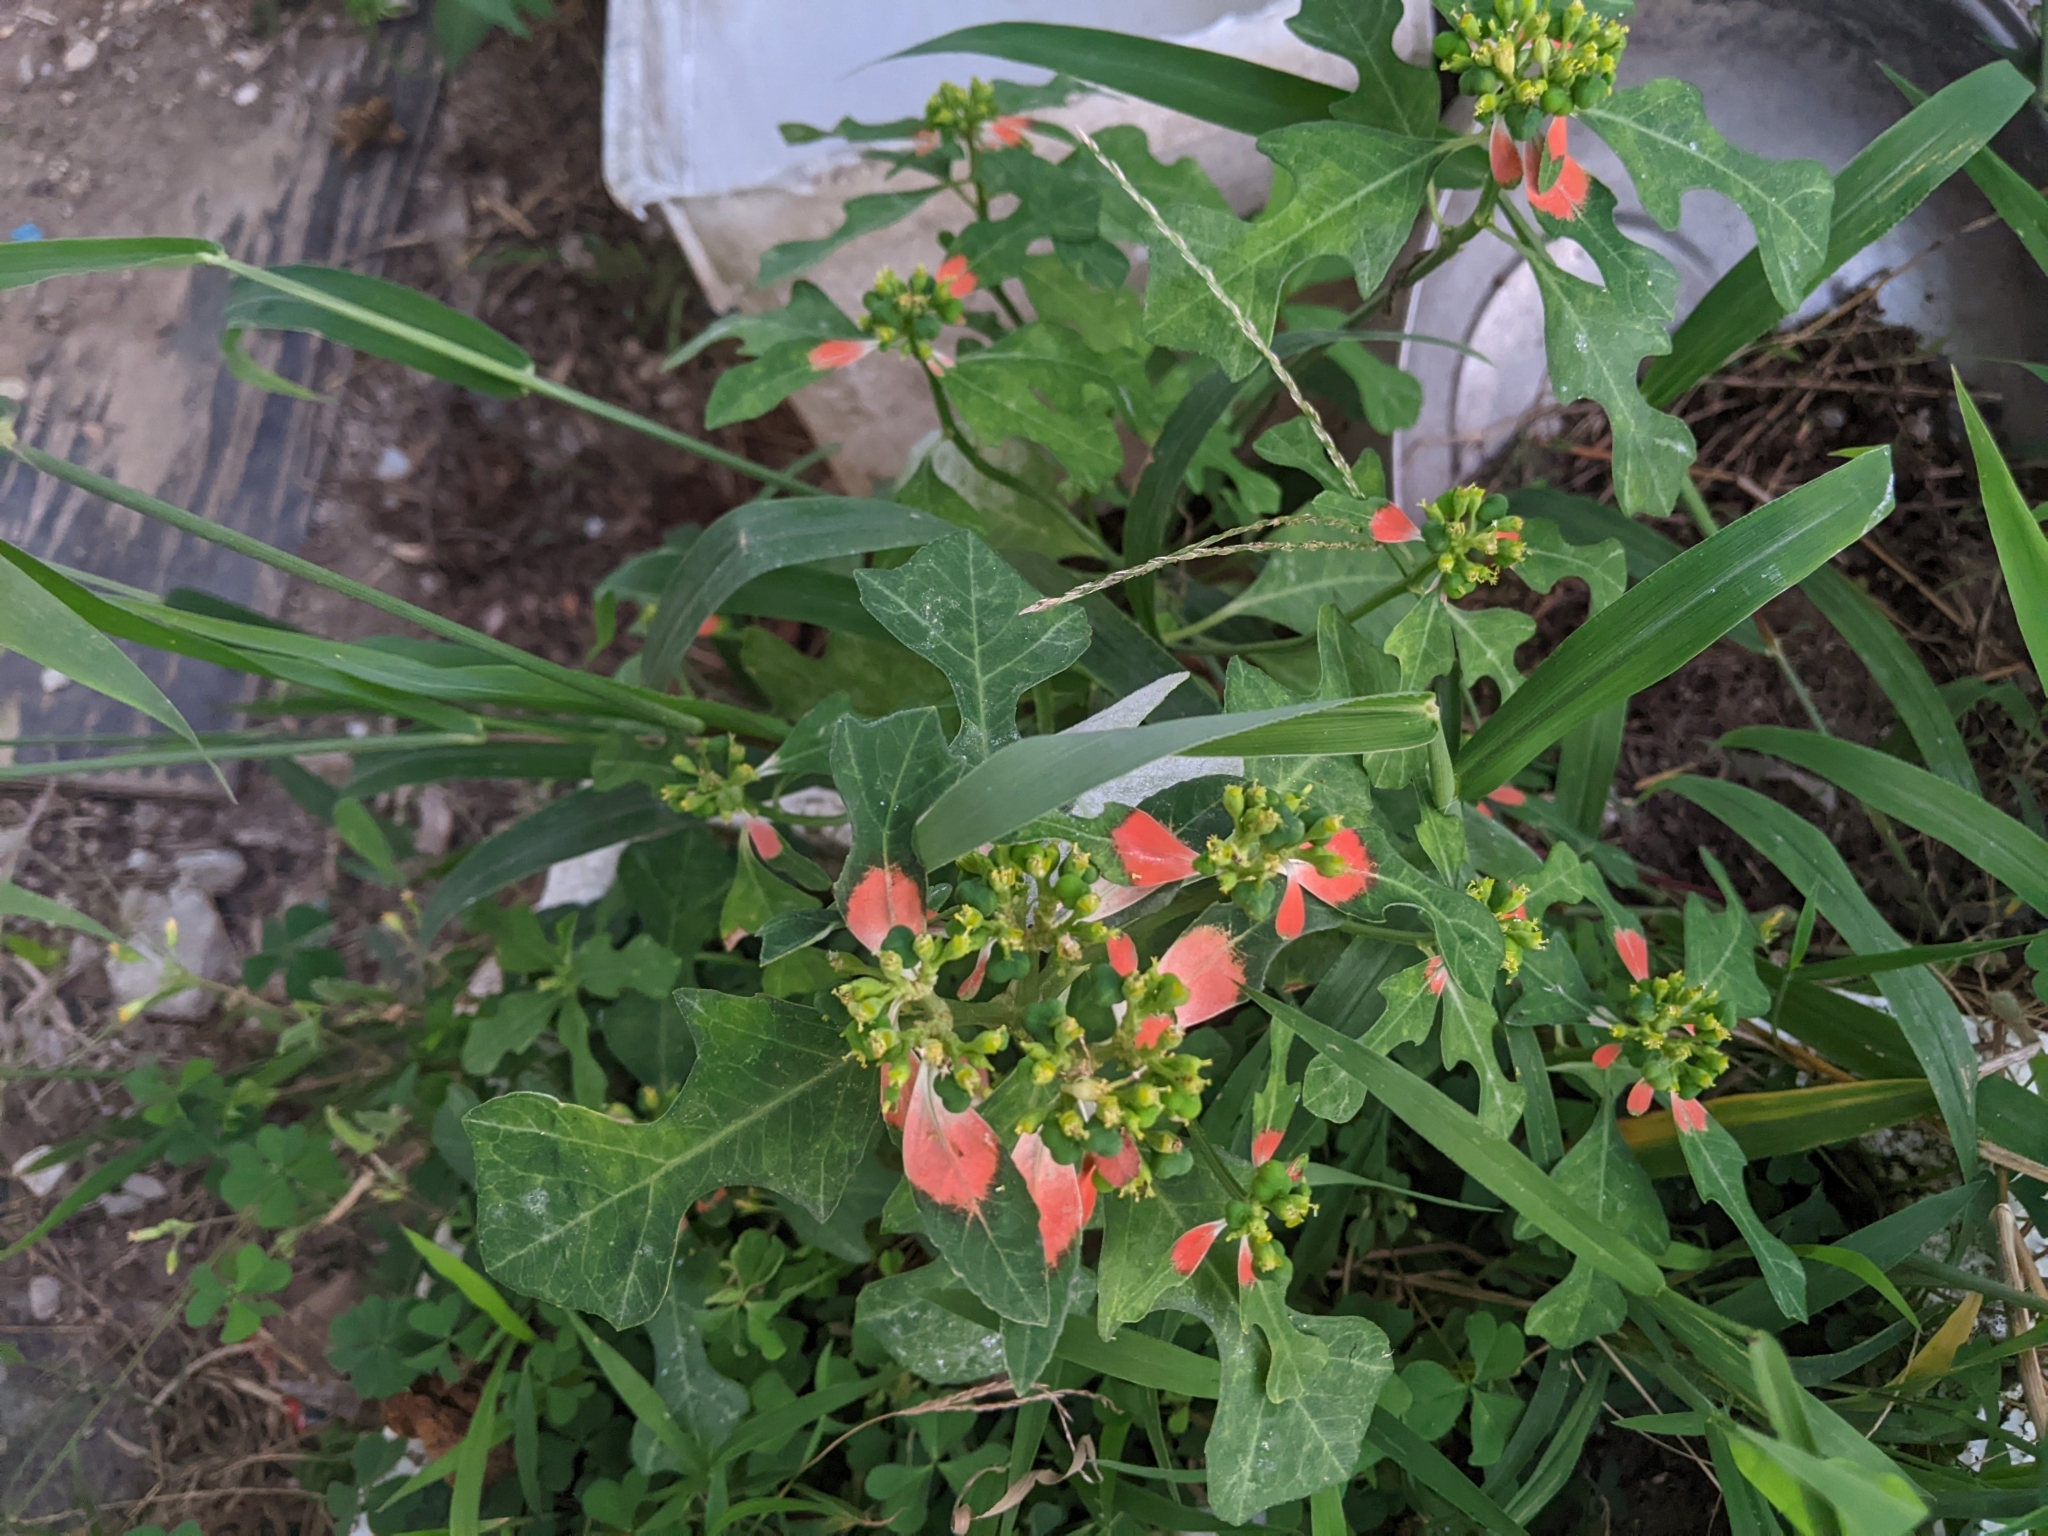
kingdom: Plantae
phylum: Tracheophyta
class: Magnoliopsida
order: Malpighiales
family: Euphorbiaceae
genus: Euphorbia
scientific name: Euphorbia heterophylla
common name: Mexican fireplant
